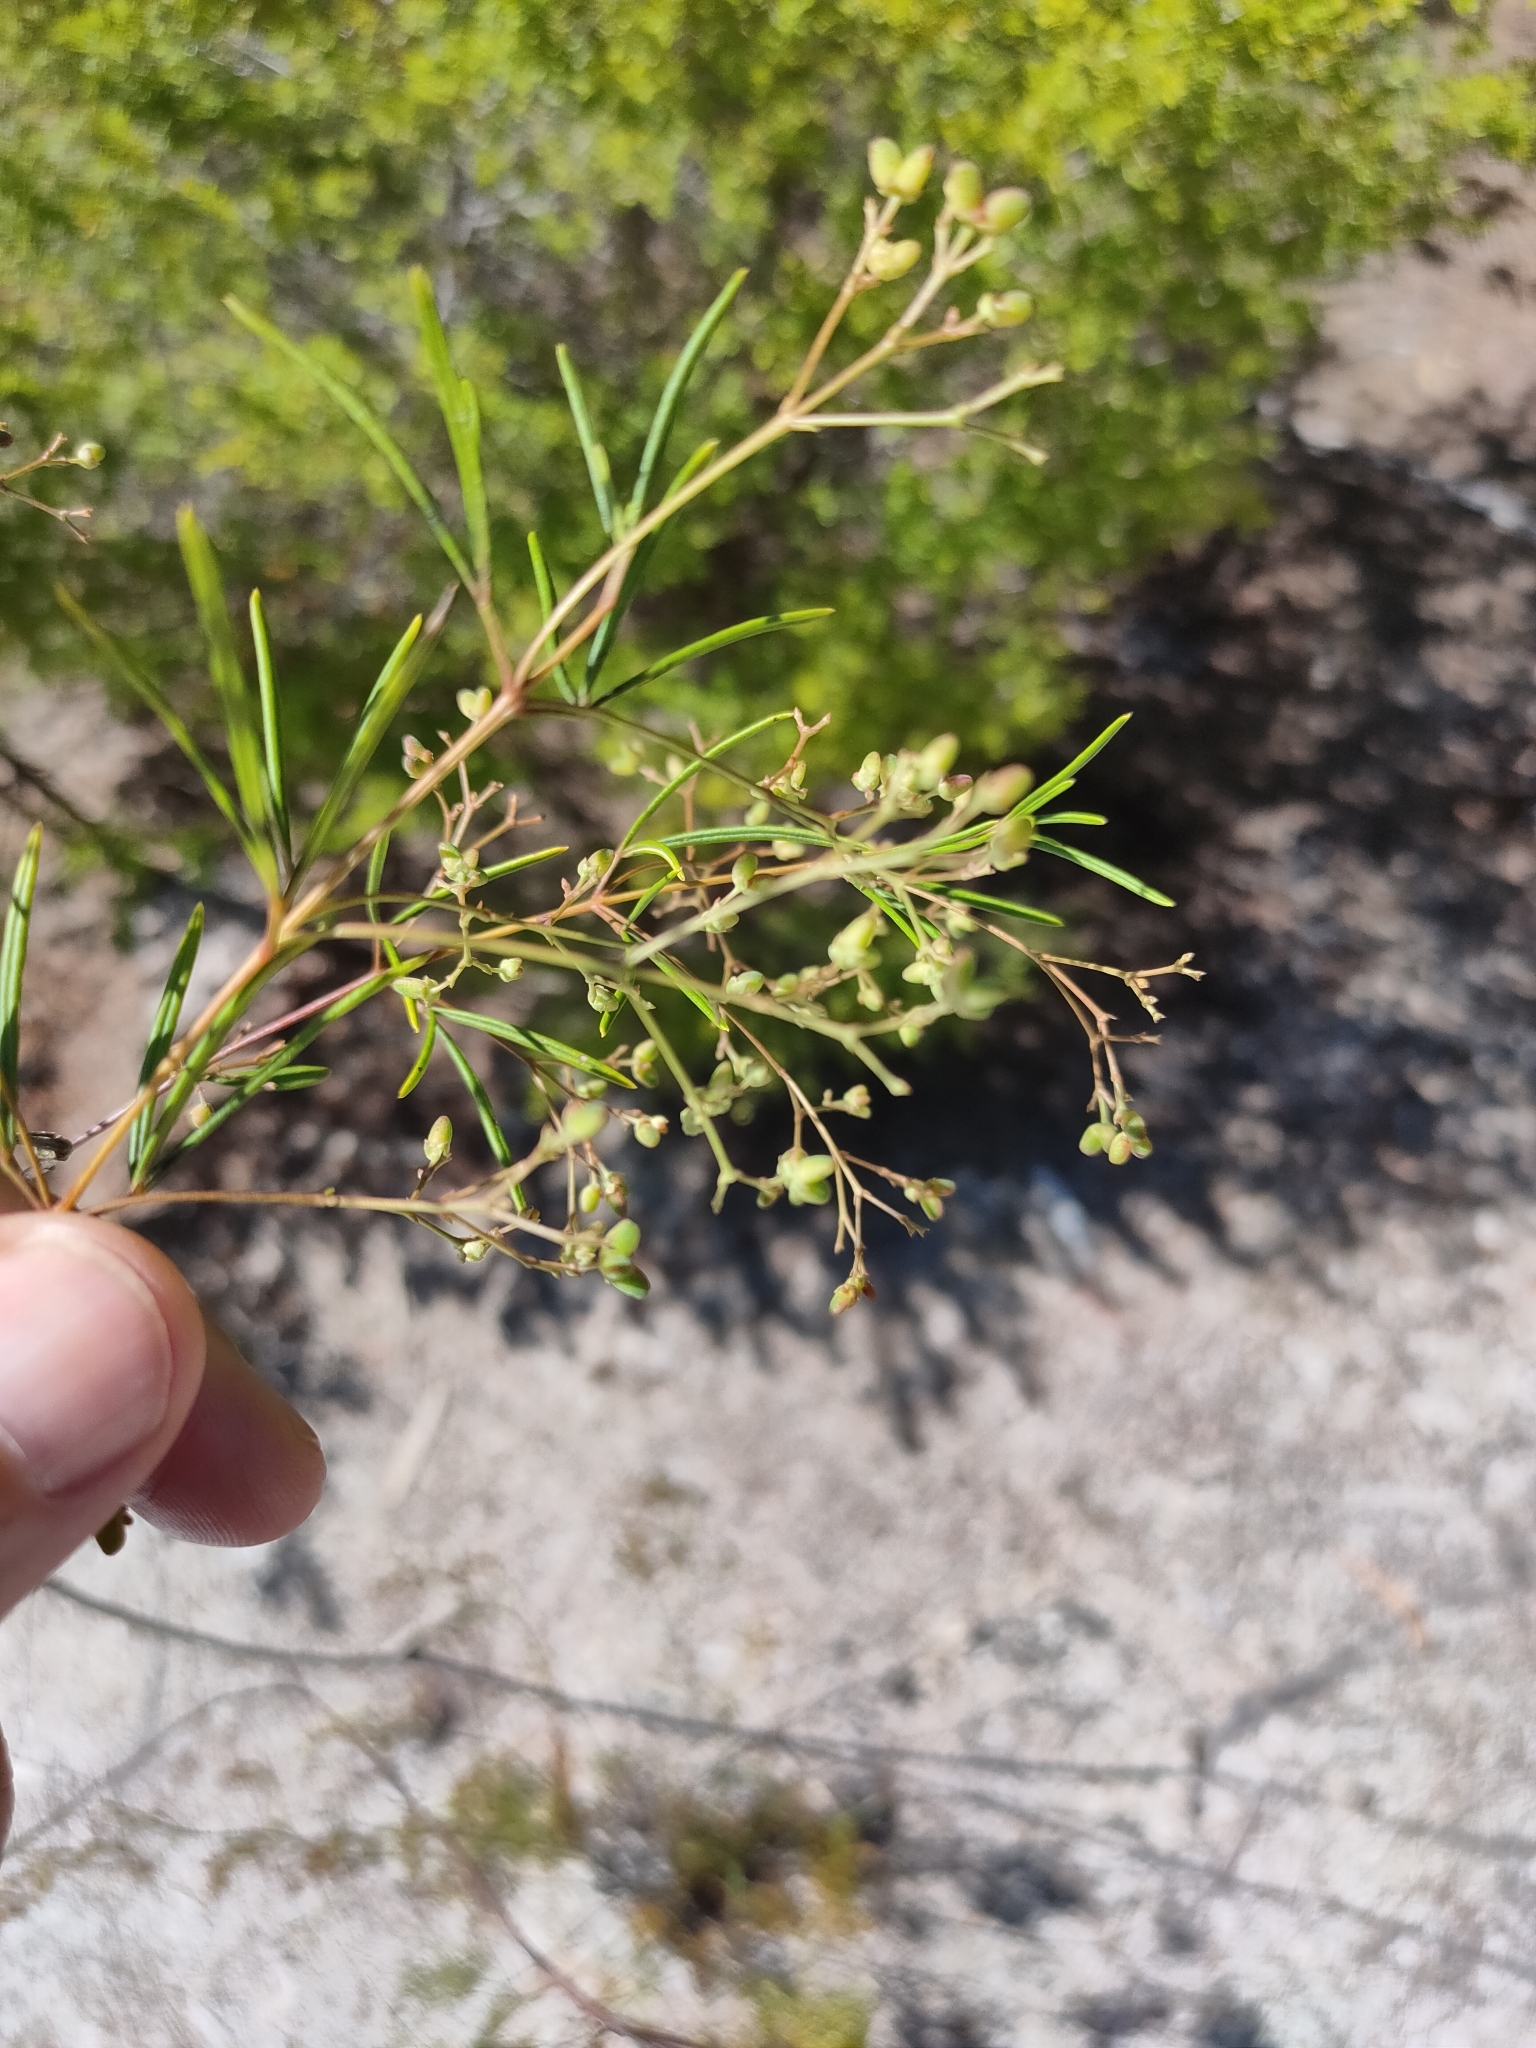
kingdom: Plantae
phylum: Tracheophyta
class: Magnoliopsida
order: Apiales
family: Araliaceae
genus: Astrotricha
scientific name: Astrotricha glabra
